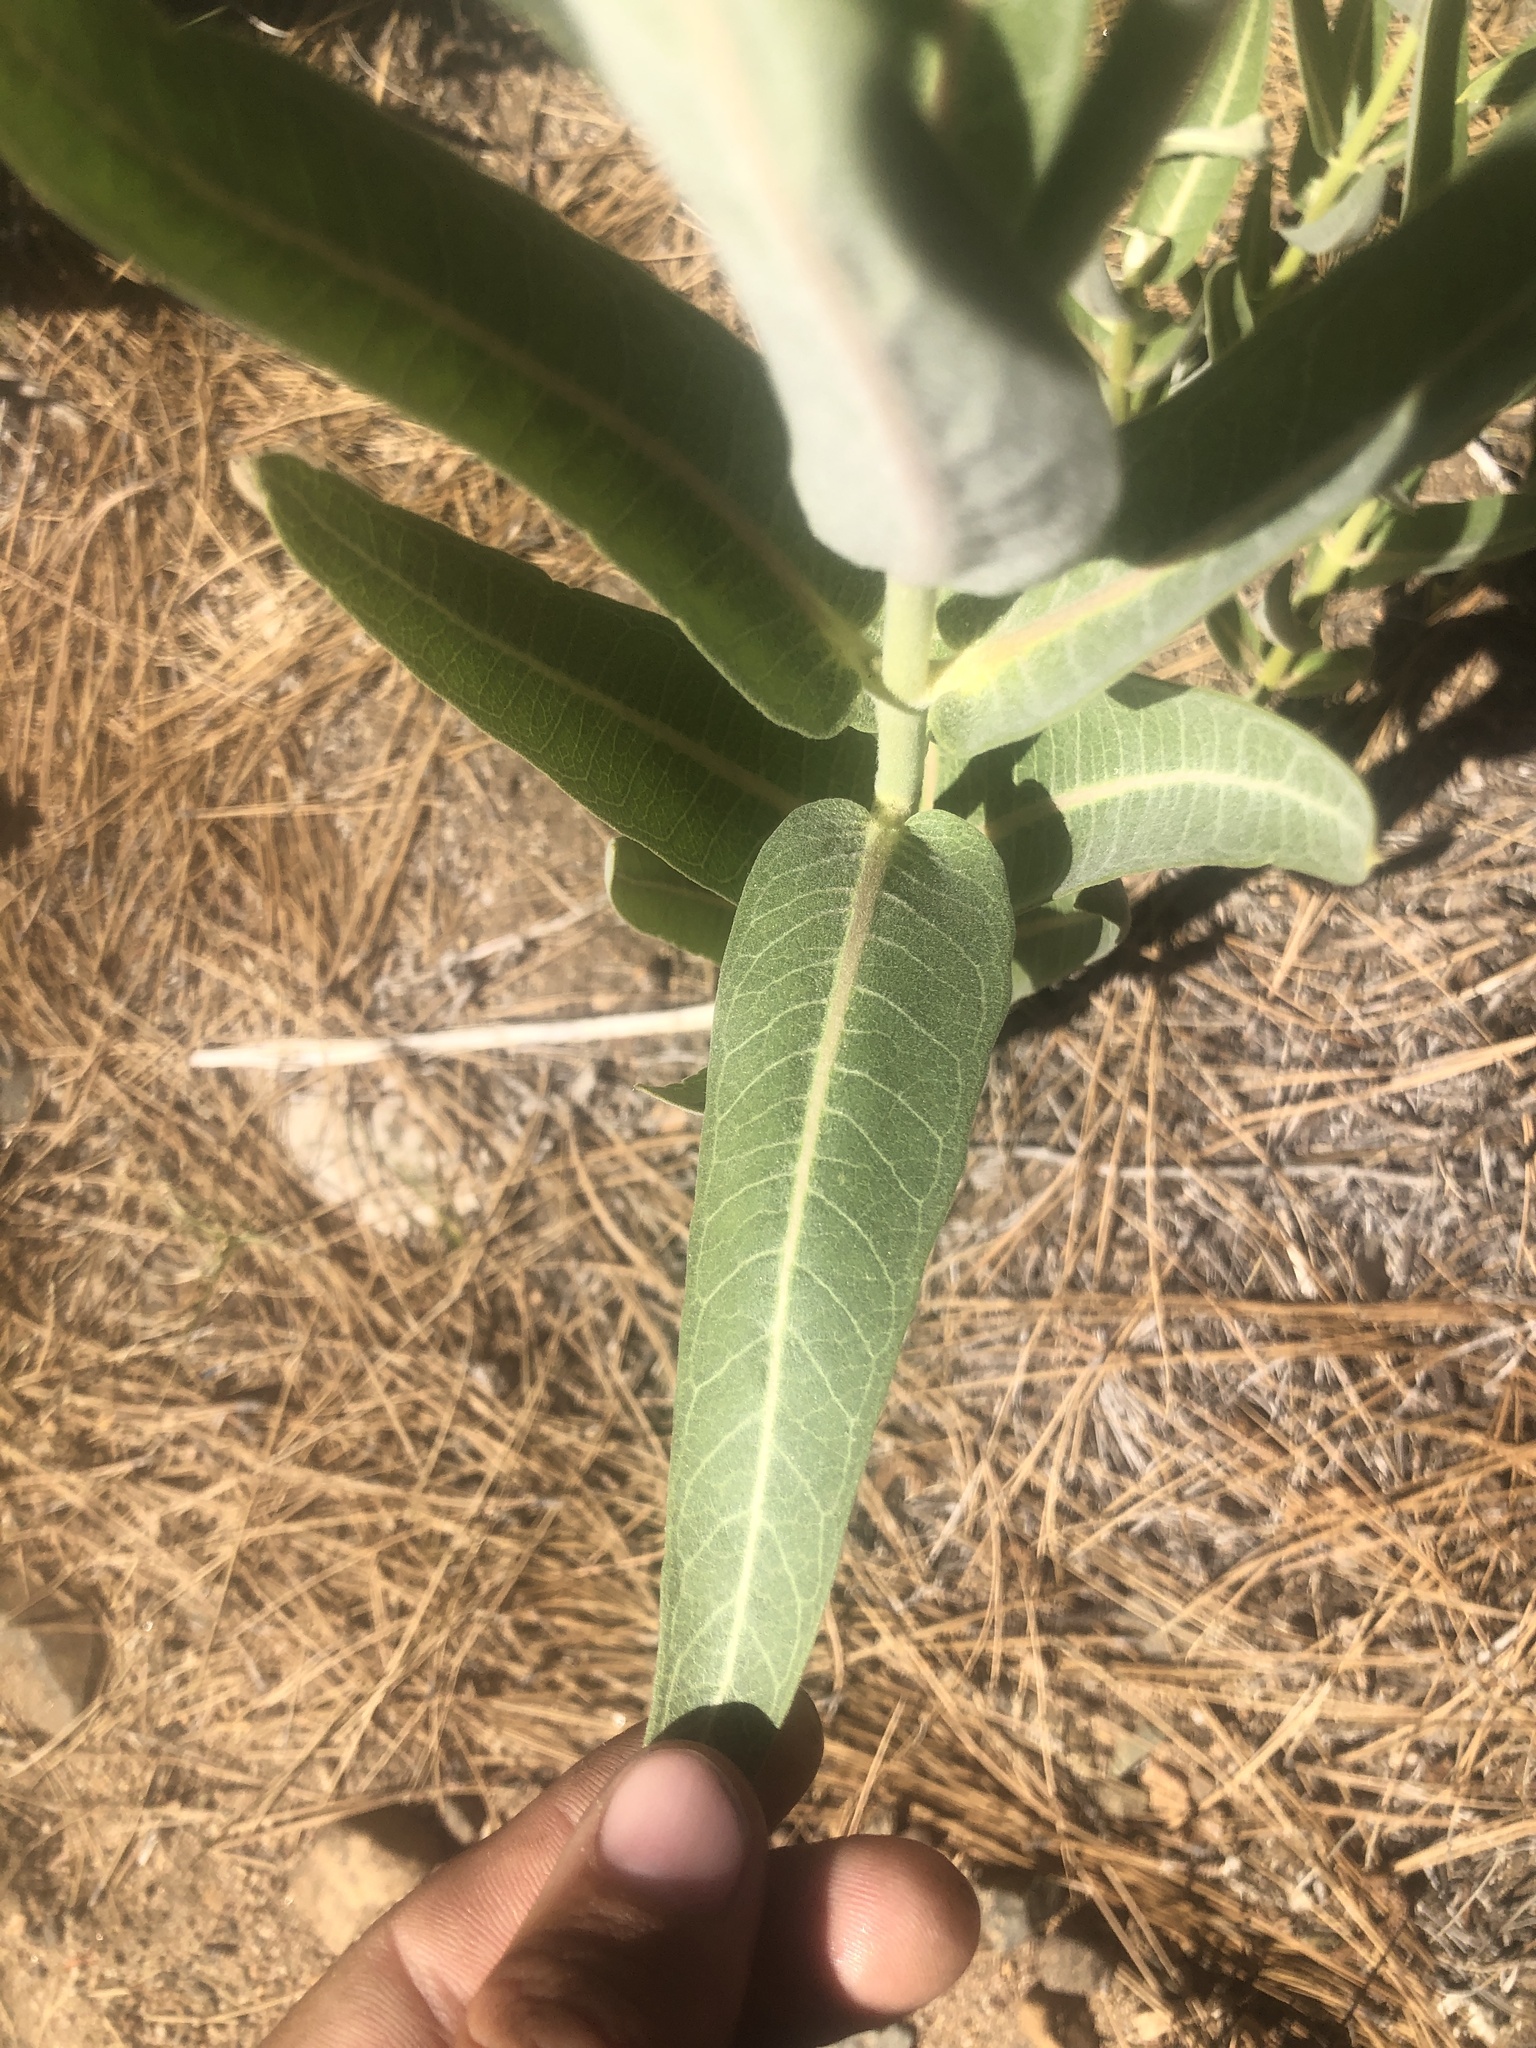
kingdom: Plantae
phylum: Tracheophyta
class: Magnoliopsida
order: Gentianales
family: Apocynaceae
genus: Asclepias
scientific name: Asclepias speciosa
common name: Showy milkweed
